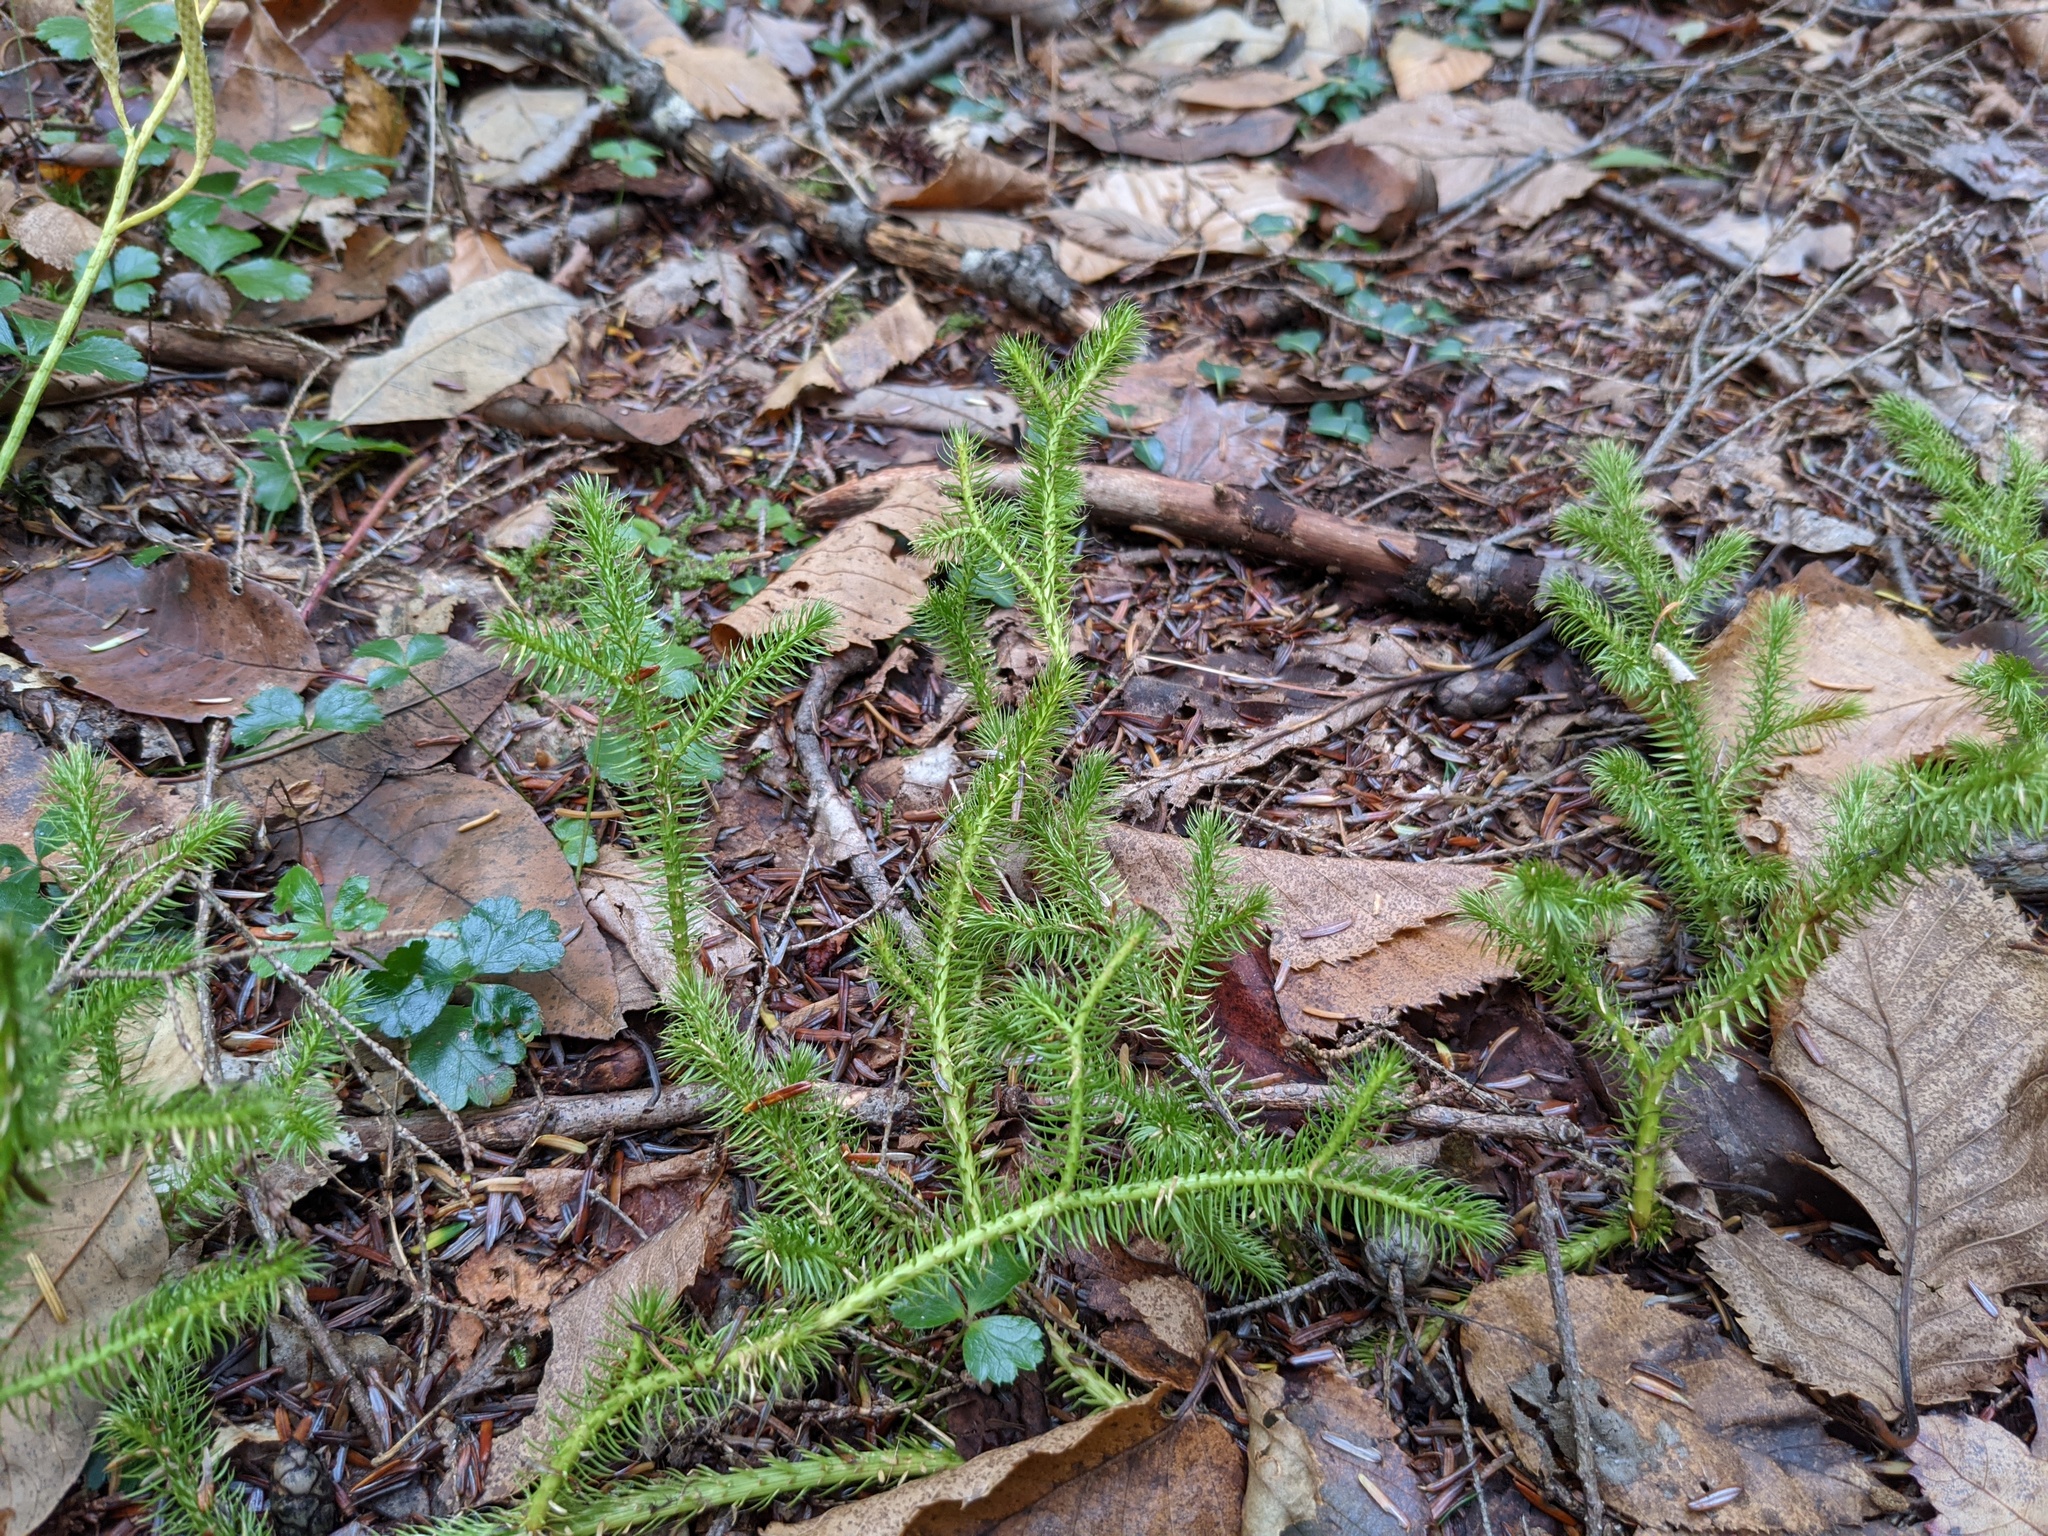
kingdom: Plantae
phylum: Tracheophyta
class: Lycopodiopsida
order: Lycopodiales
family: Lycopodiaceae
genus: Lycopodium
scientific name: Lycopodium clavatum
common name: Stag's-horn clubmoss
